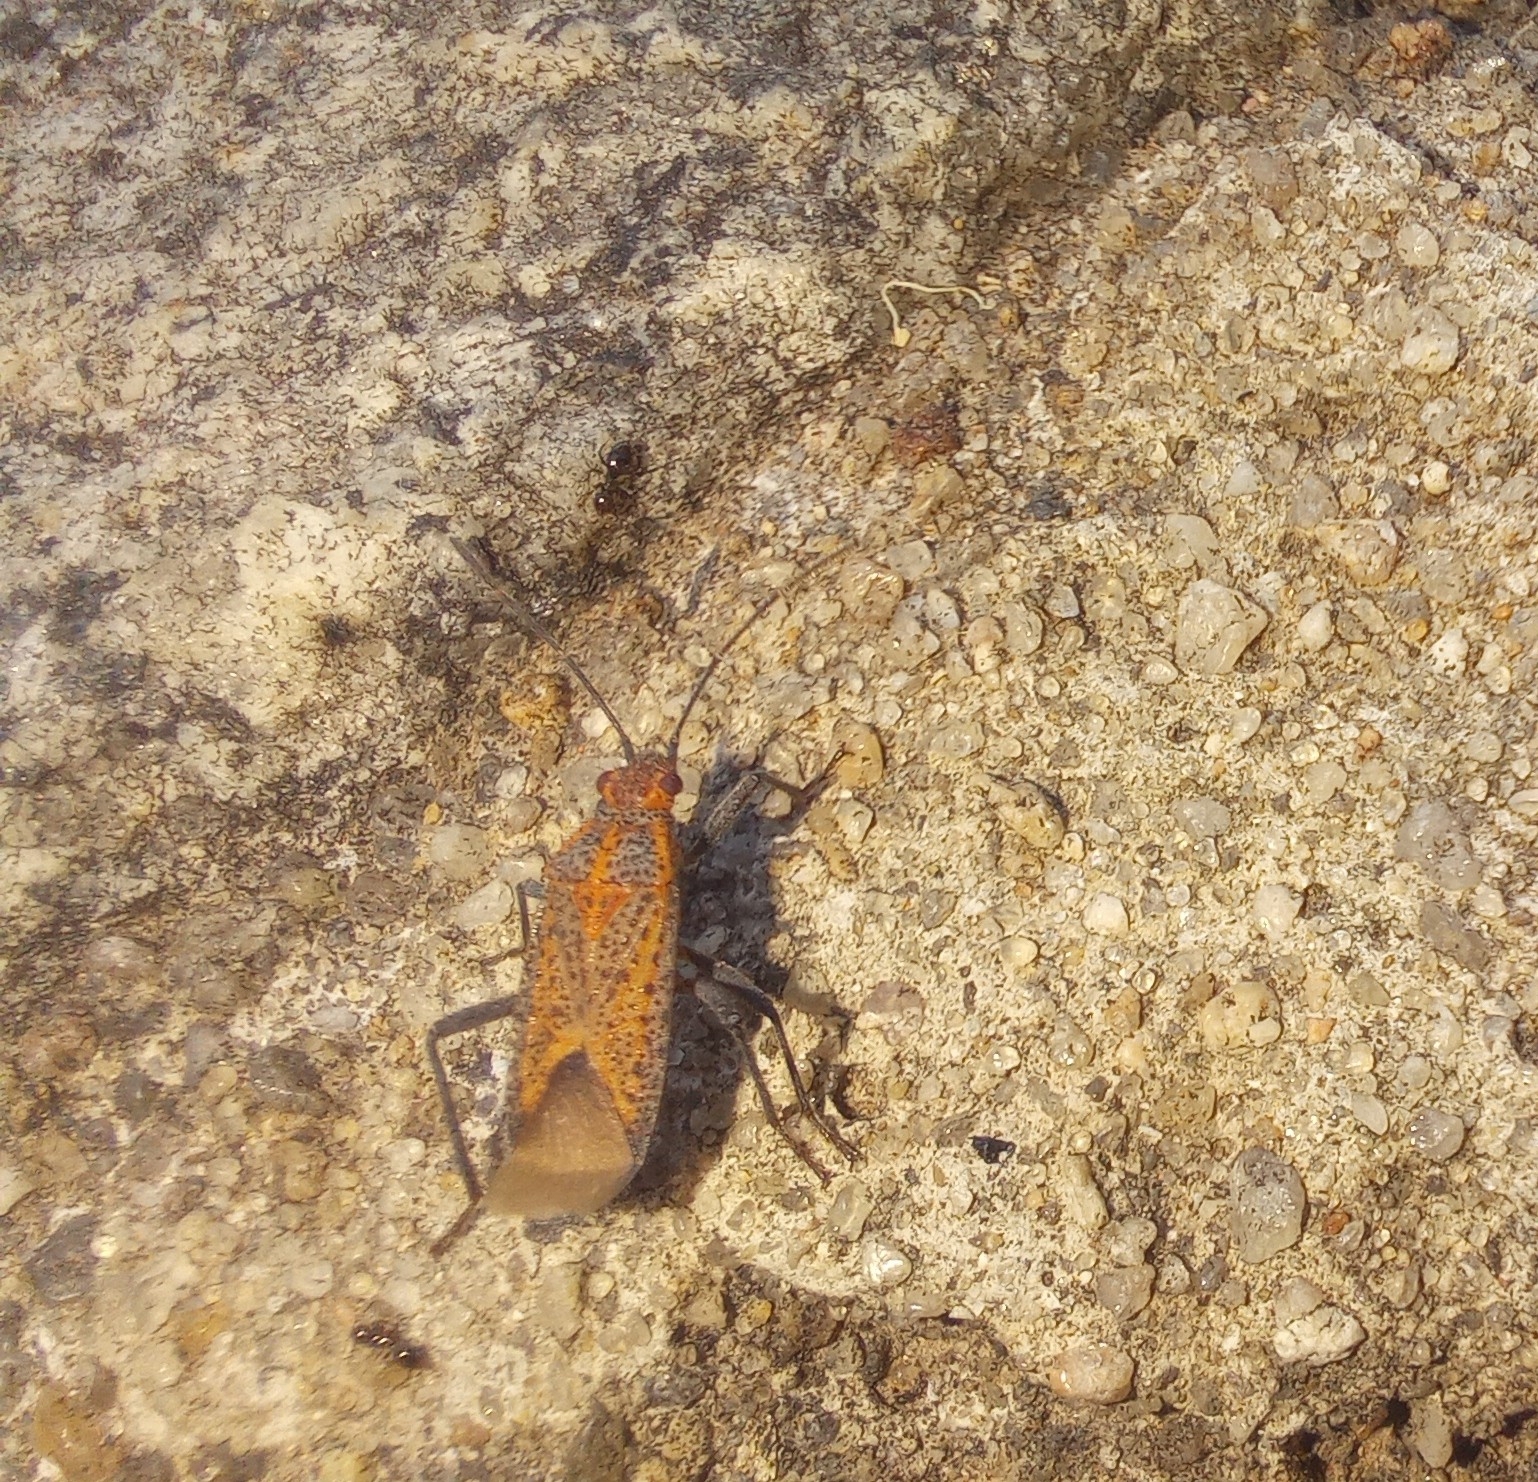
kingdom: Animalia
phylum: Arthropoda
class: Insecta
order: Hemiptera
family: Rhopalidae
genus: Jadera
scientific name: Jadera choprai
